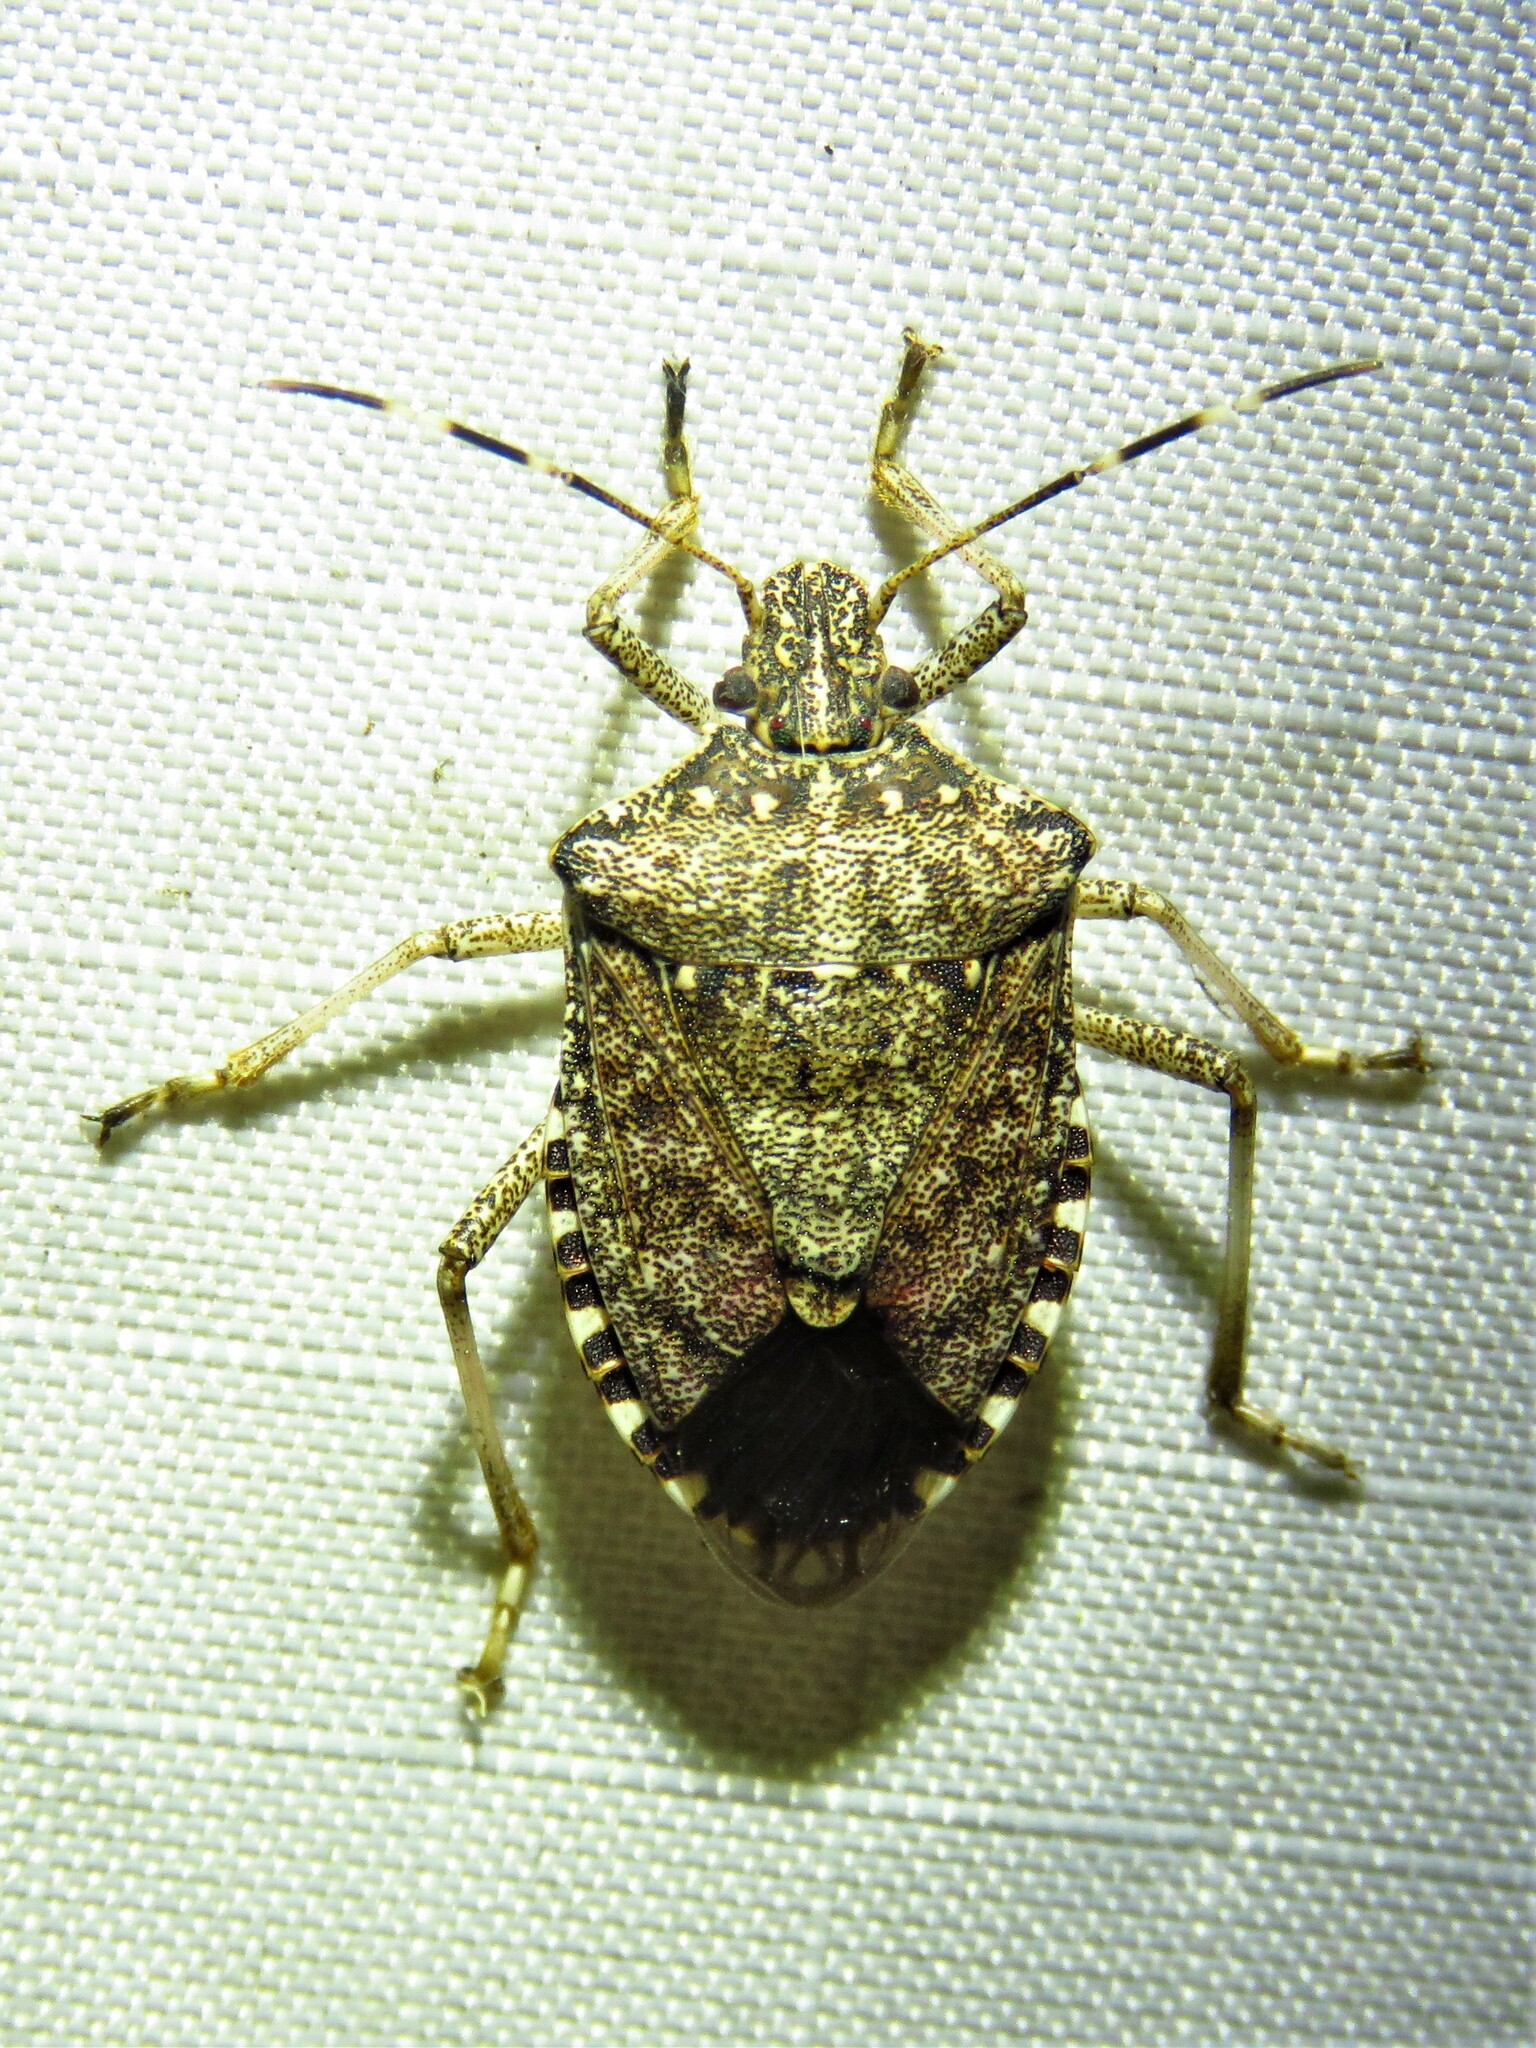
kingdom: Animalia
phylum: Arthropoda
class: Insecta
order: Hemiptera
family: Pentatomidae
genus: Halyomorpha
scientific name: Halyomorpha halys
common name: Brown marmorated stink bug
